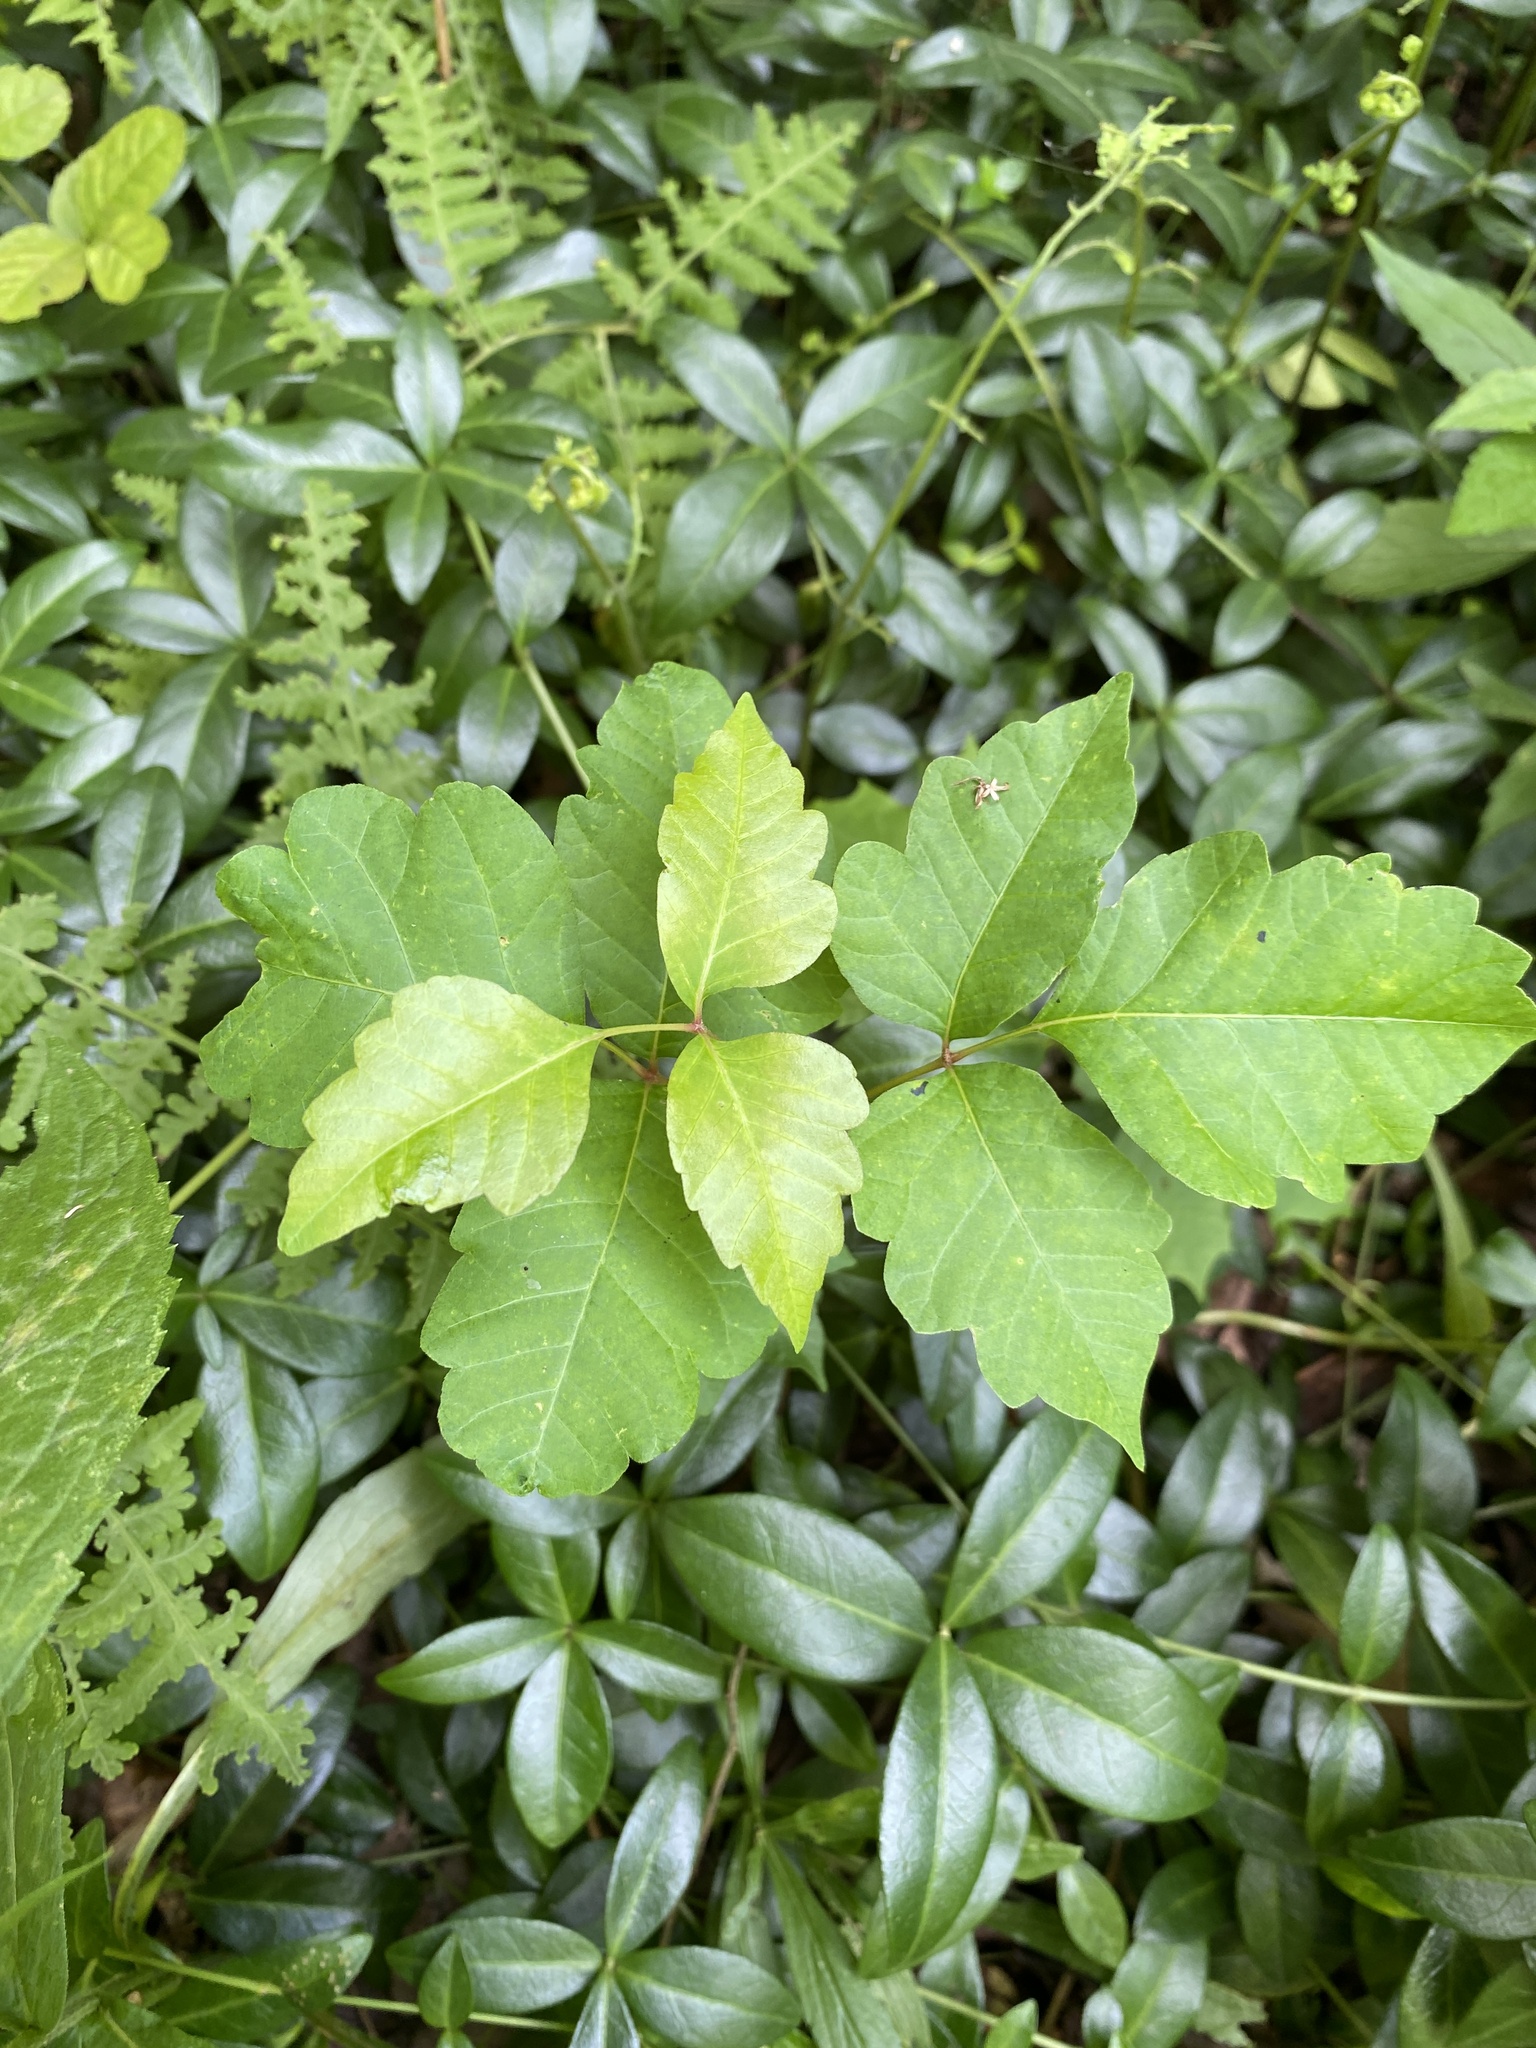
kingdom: Plantae
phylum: Tracheophyta
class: Magnoliopsida
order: Sapindales
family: Anacardiaceae
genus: Toxicodendron
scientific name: Toxicodendron radicans
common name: Poison ivy
